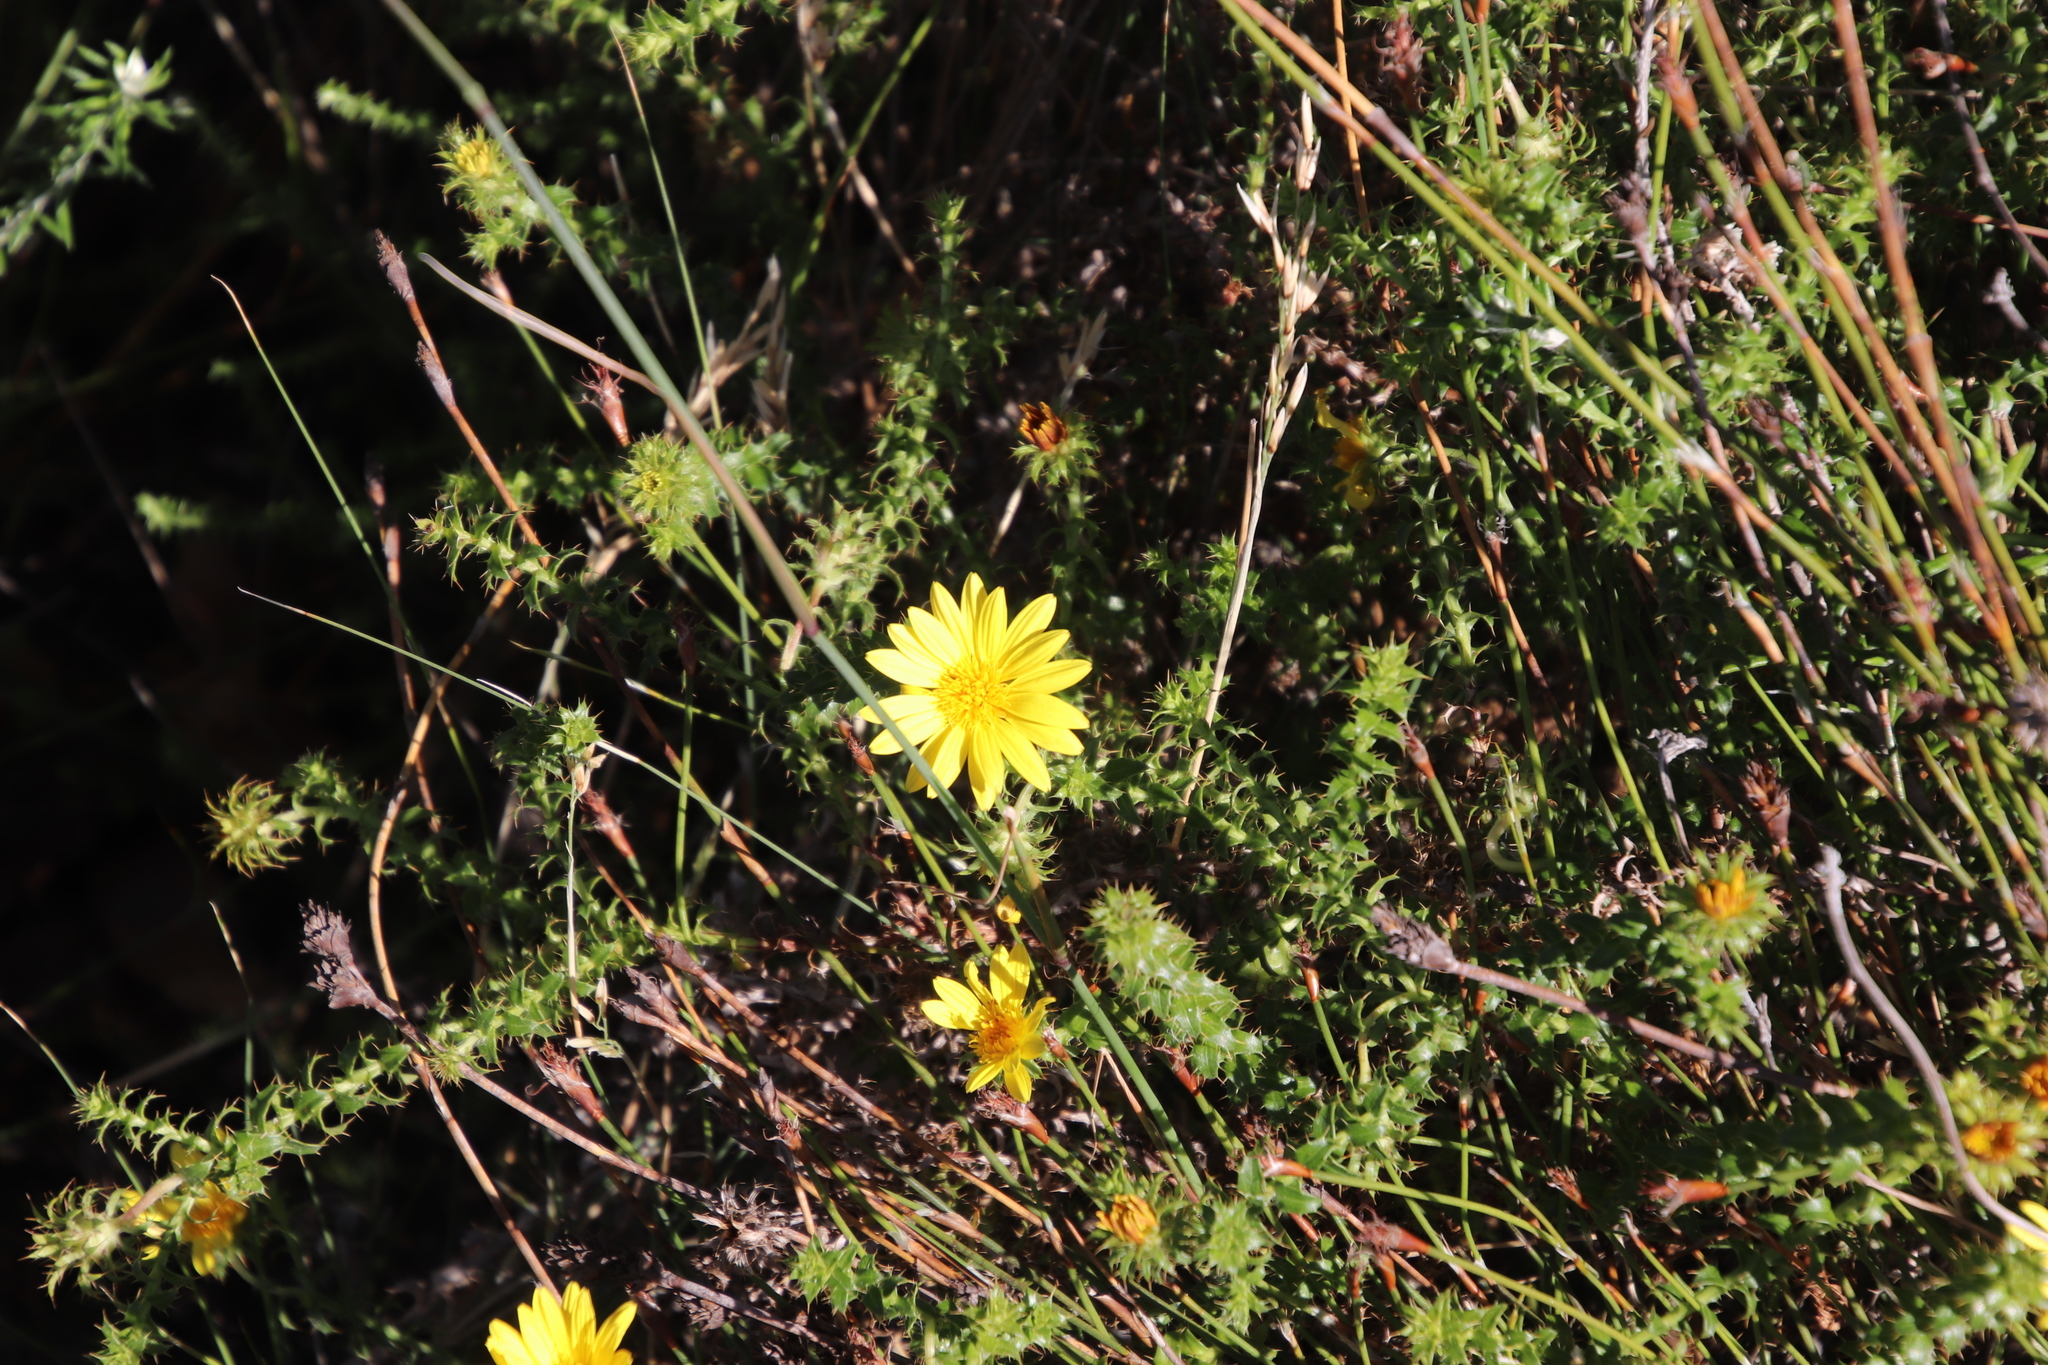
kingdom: Plantae
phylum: Tracheophyta
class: Magnoliopsida
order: Asterales
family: Asteraceae
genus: Cullumia
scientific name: Cullumia setosa
